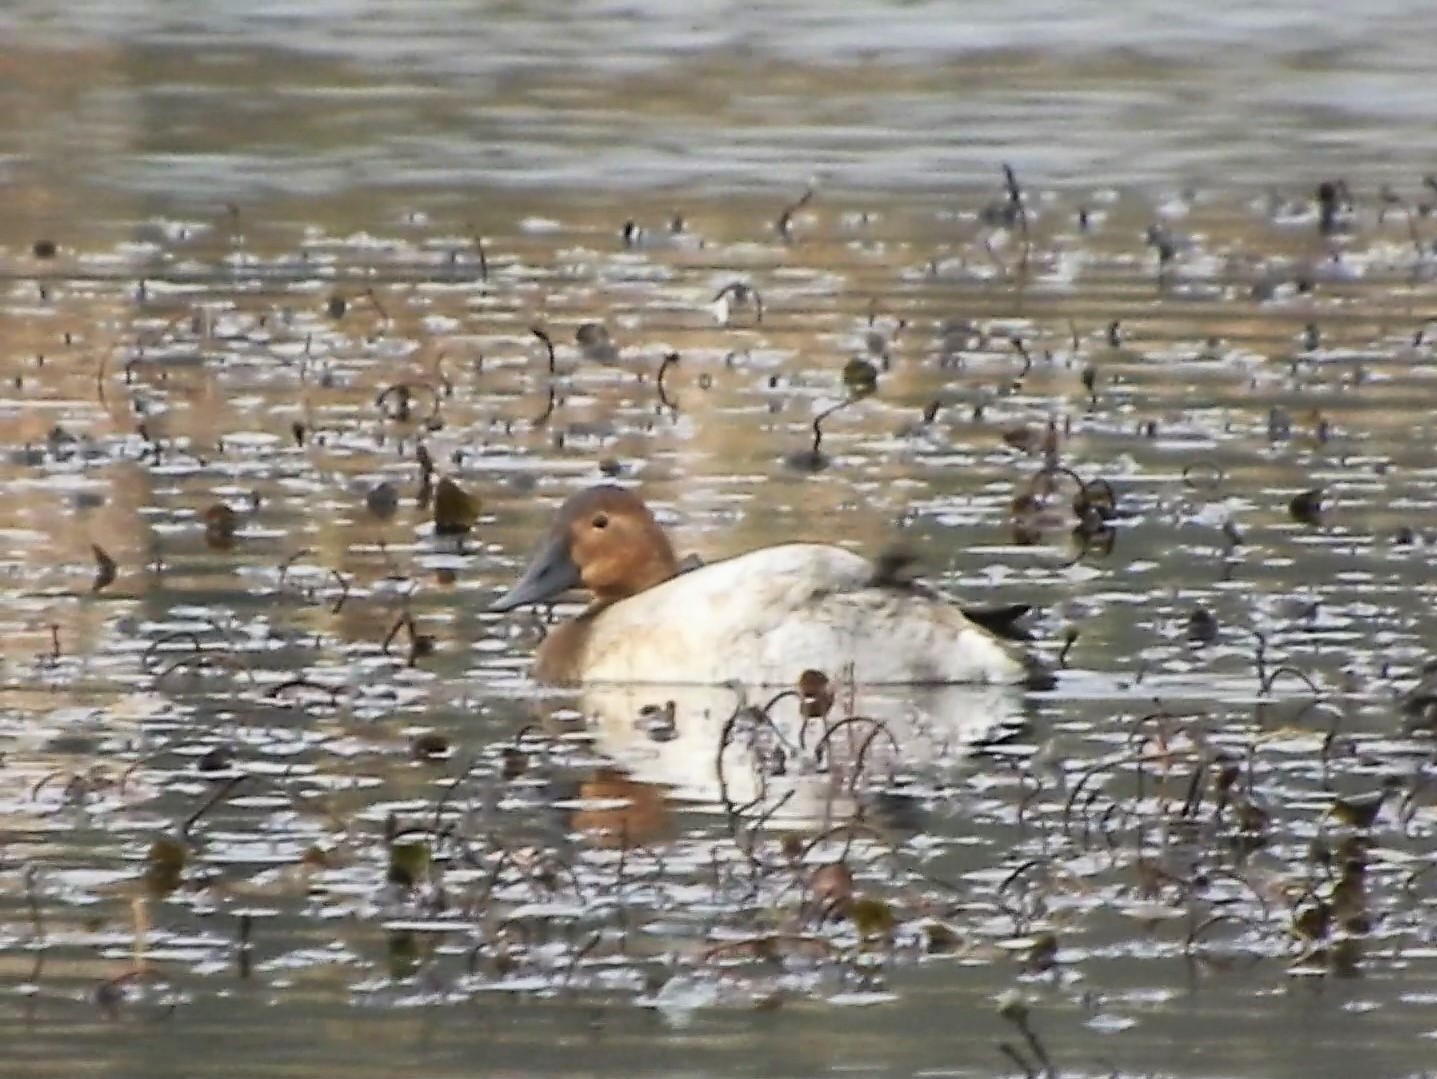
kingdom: Animalia
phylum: Chordata
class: Aves
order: Anseriformes
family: Anatidae
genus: Aythya
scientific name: Aythya valisineria
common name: Canvasback
